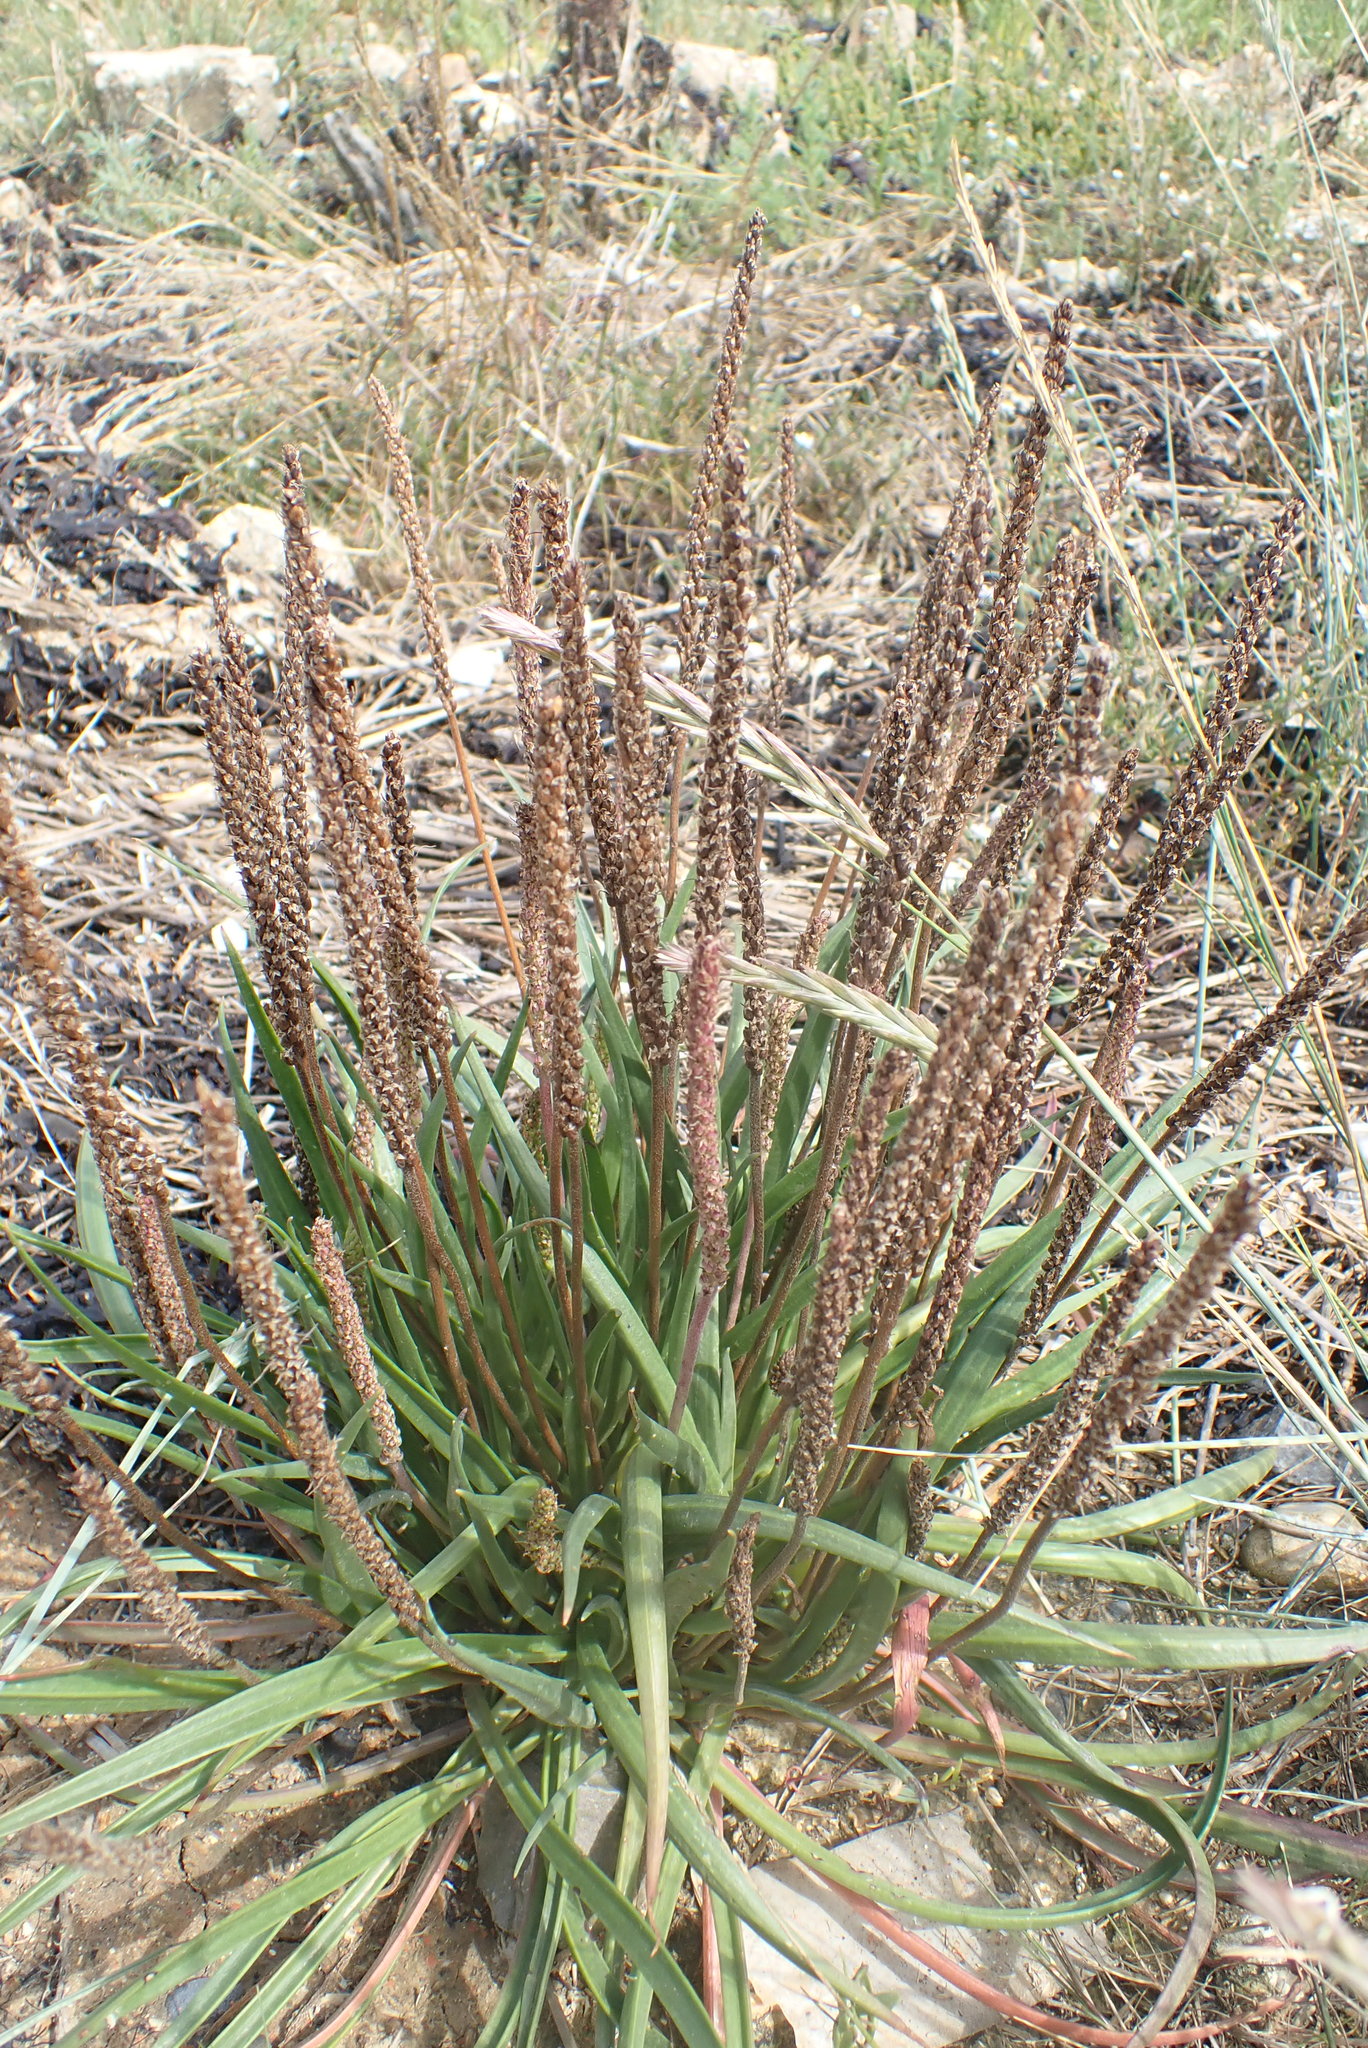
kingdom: Plantae
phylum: Tracheophyta
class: Magnoliopsida
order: Lamiales
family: Plantaginaceae
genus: Plantago
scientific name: Plantago maritima
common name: Sea plantain
